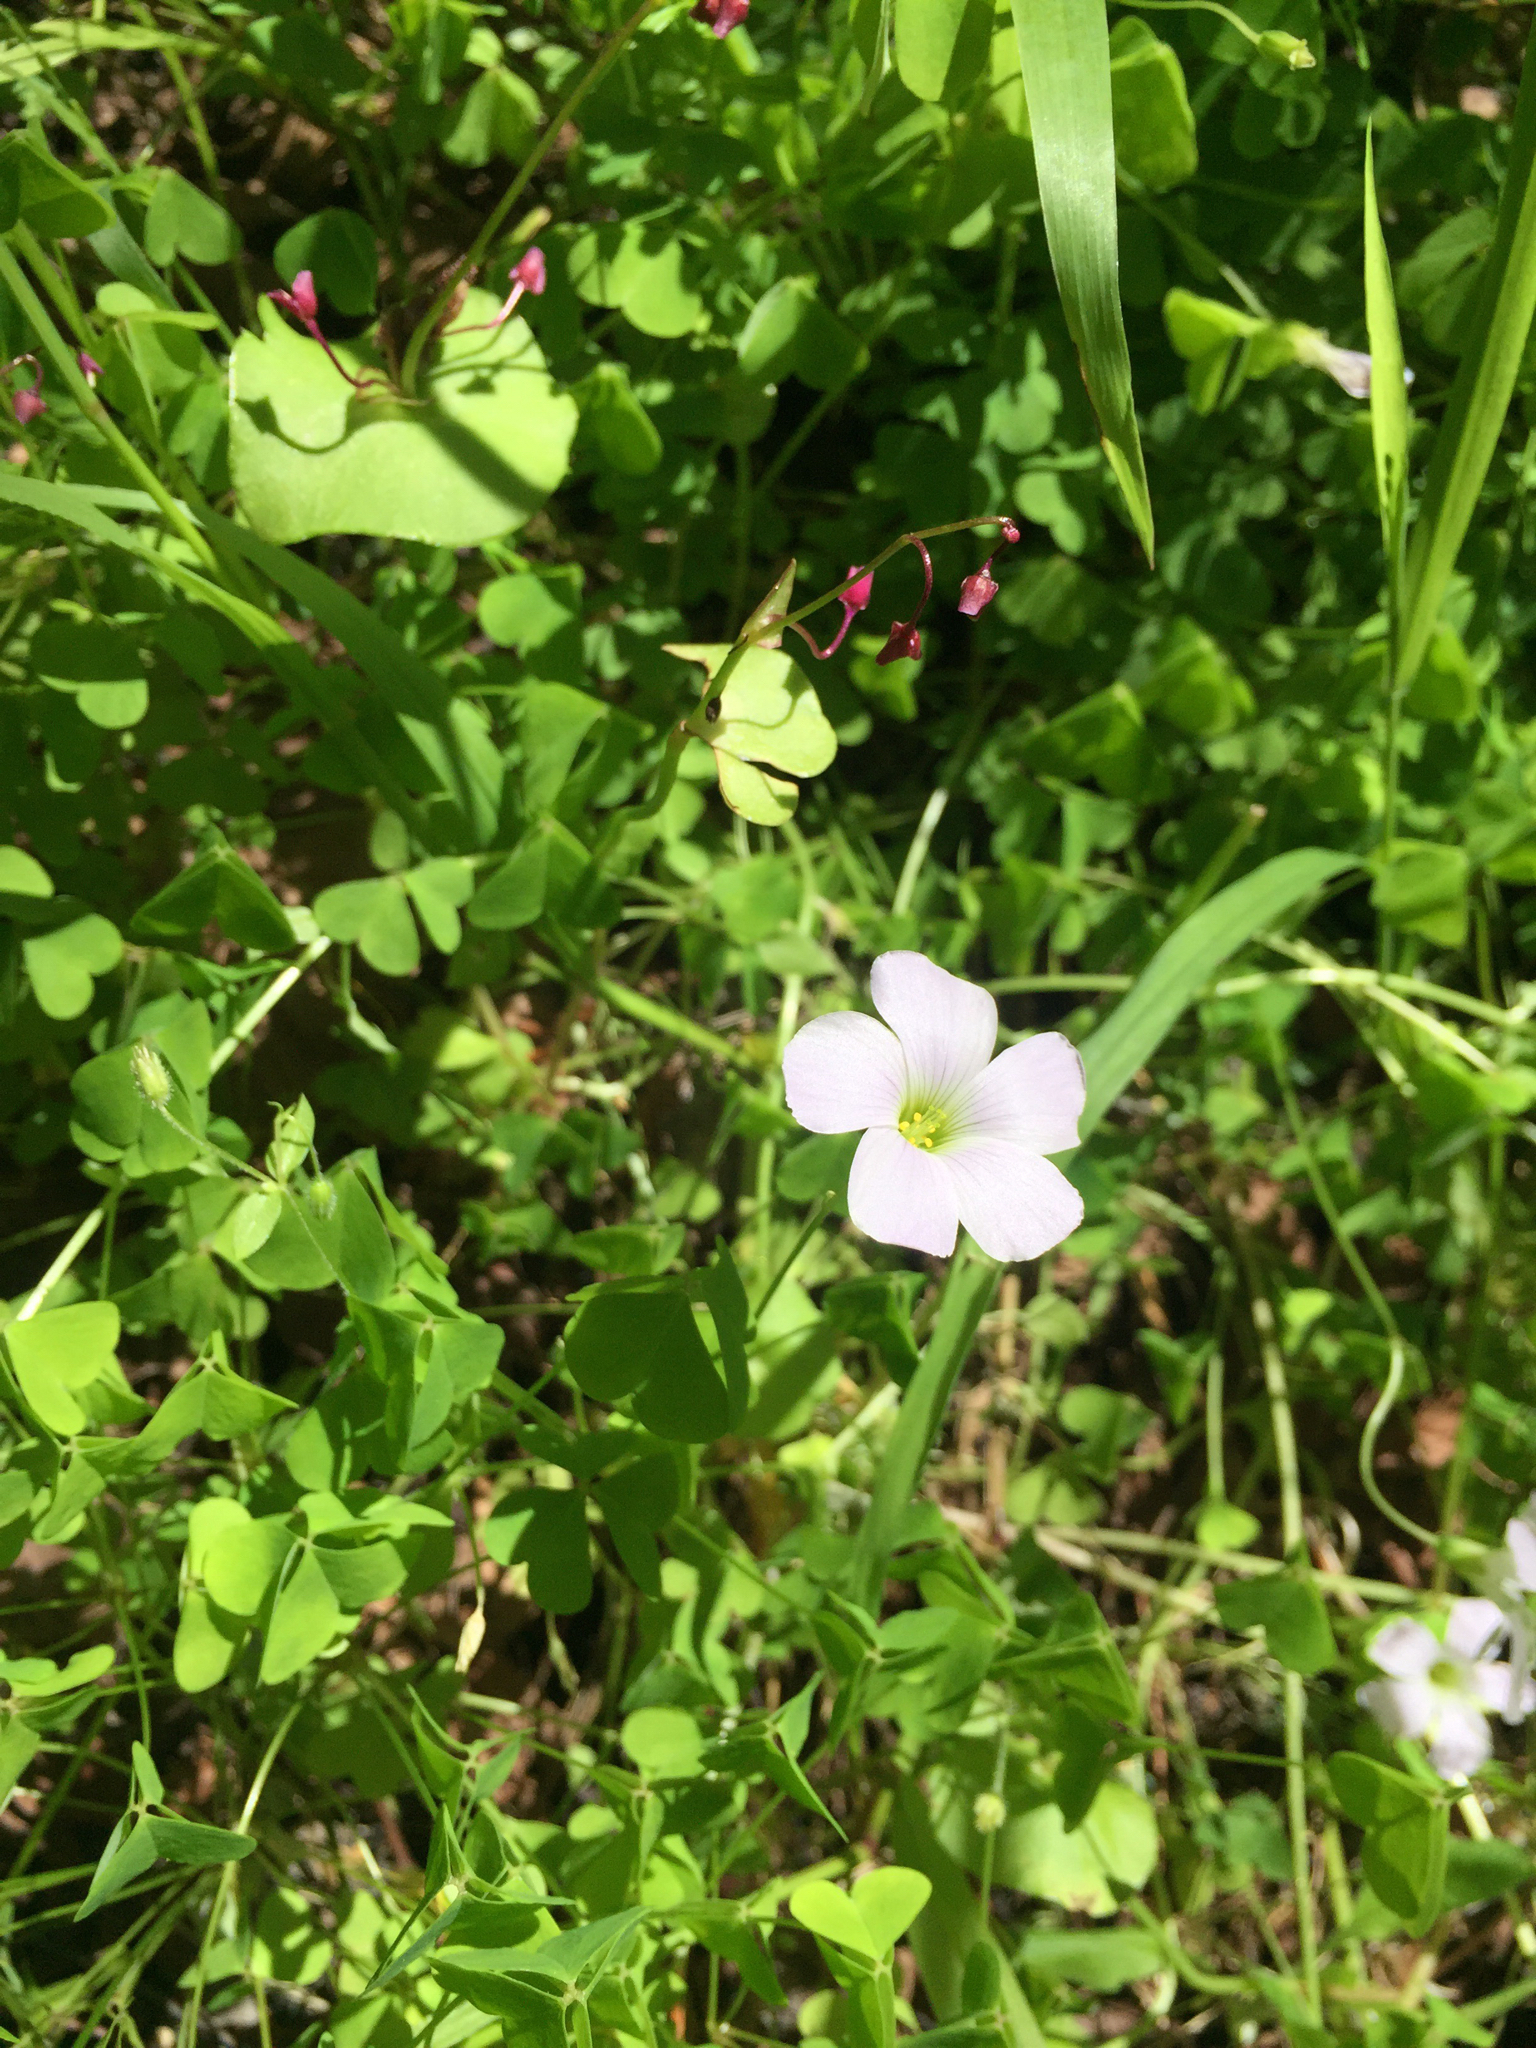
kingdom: Plantae
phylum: Tracheophyta
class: Magnoliopsida
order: Oxalidales
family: Oxalidaceae
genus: Oxalis
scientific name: Oxalis incarnata
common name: Pale pink-sorrel
